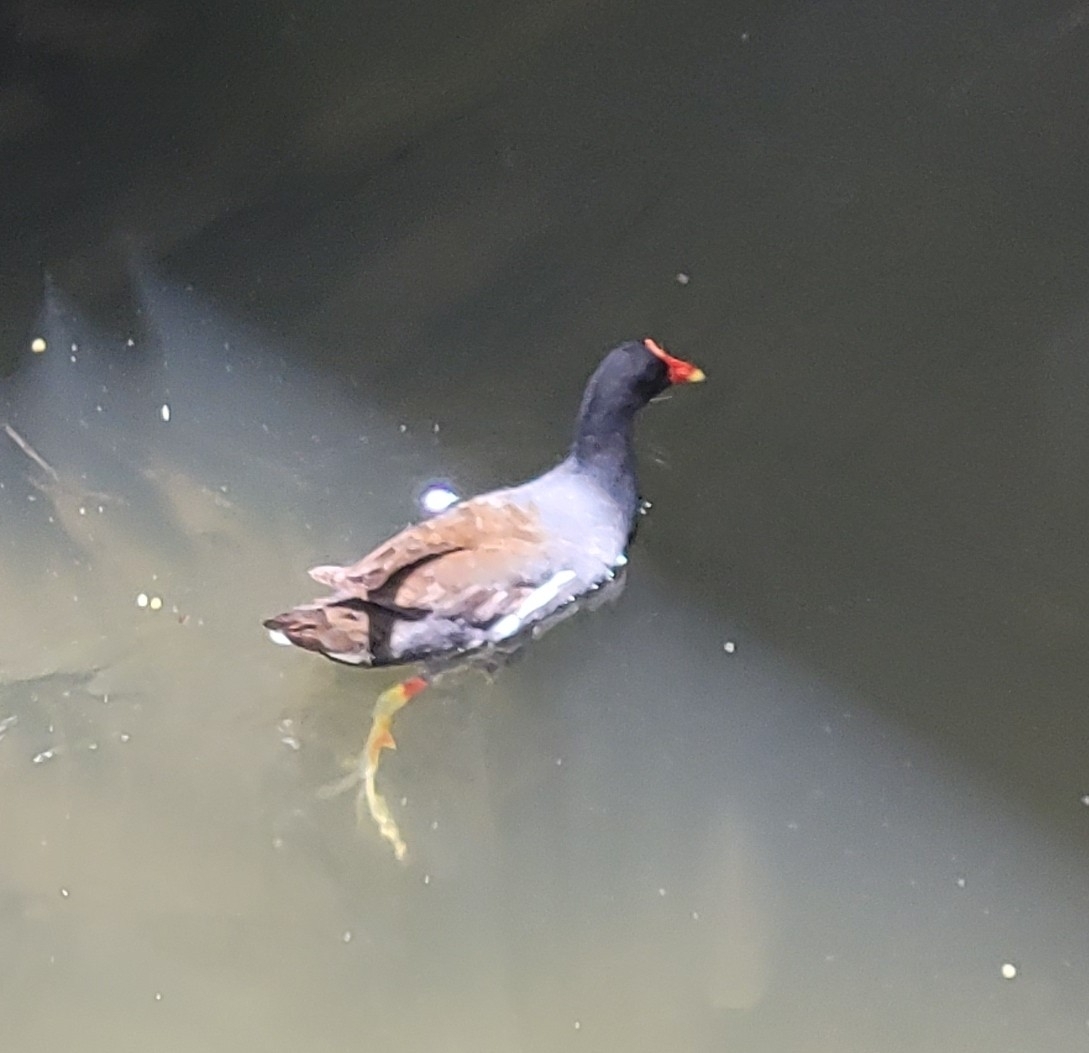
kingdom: Animalia
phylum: Chordata
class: Aves
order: Gruiformes
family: Rallidae
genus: Gallinula
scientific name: Gallinula chloropus
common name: Common moorhen
